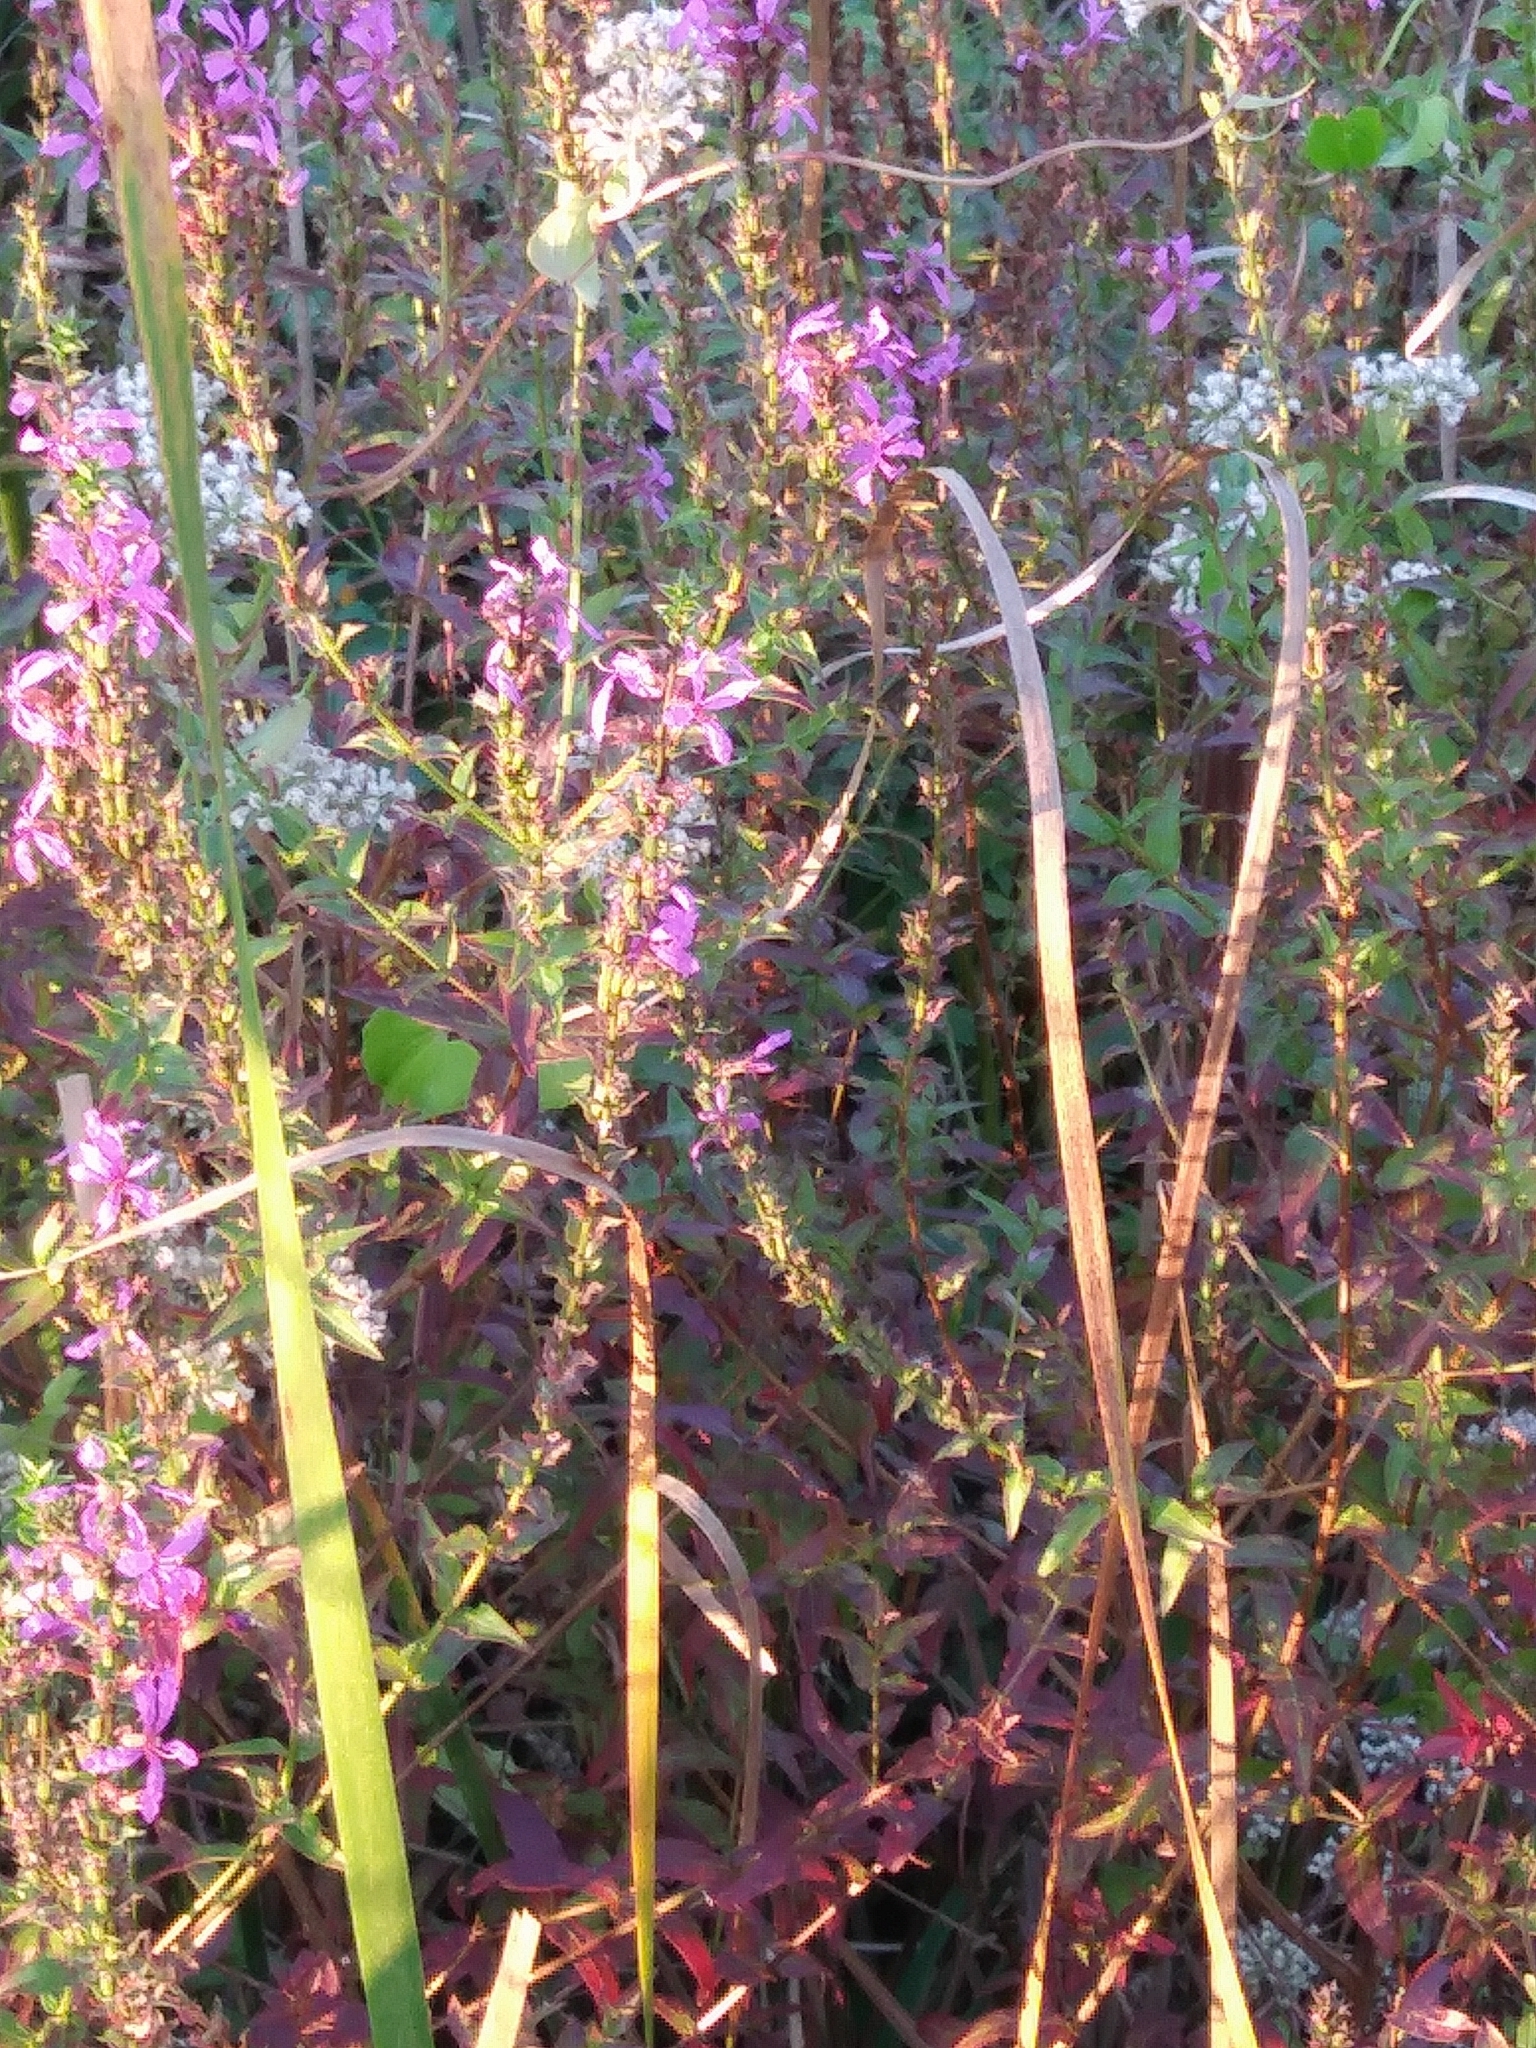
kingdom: Plantae
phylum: Tracheophyta
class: Magnoliopsida
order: Myrtales
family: Lythraceae
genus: Lythrum
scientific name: Lythrum salicaria
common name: Purple loosestrife
